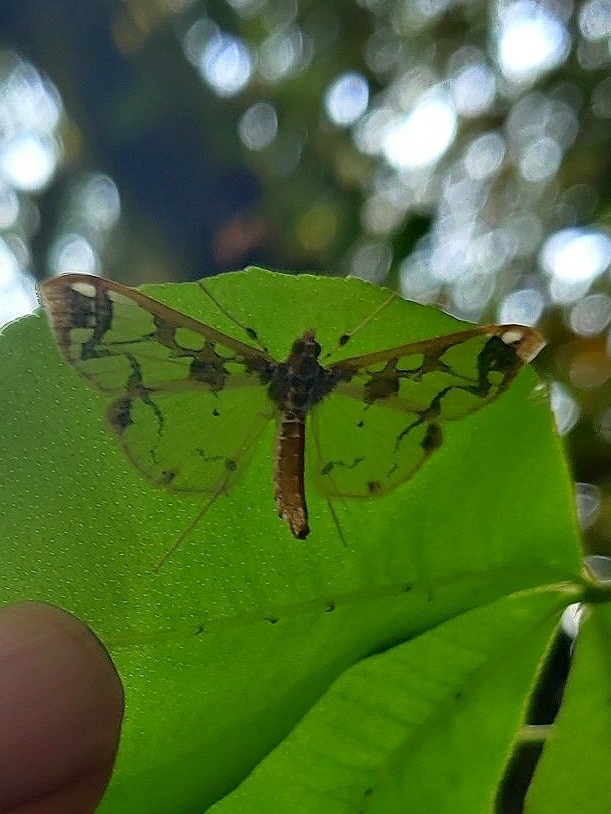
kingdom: Animalia
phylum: Arthropoda
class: Insecta
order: Lepidoptera
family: Crambidae
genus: Polythlipta
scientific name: Polythlipta divaricata
